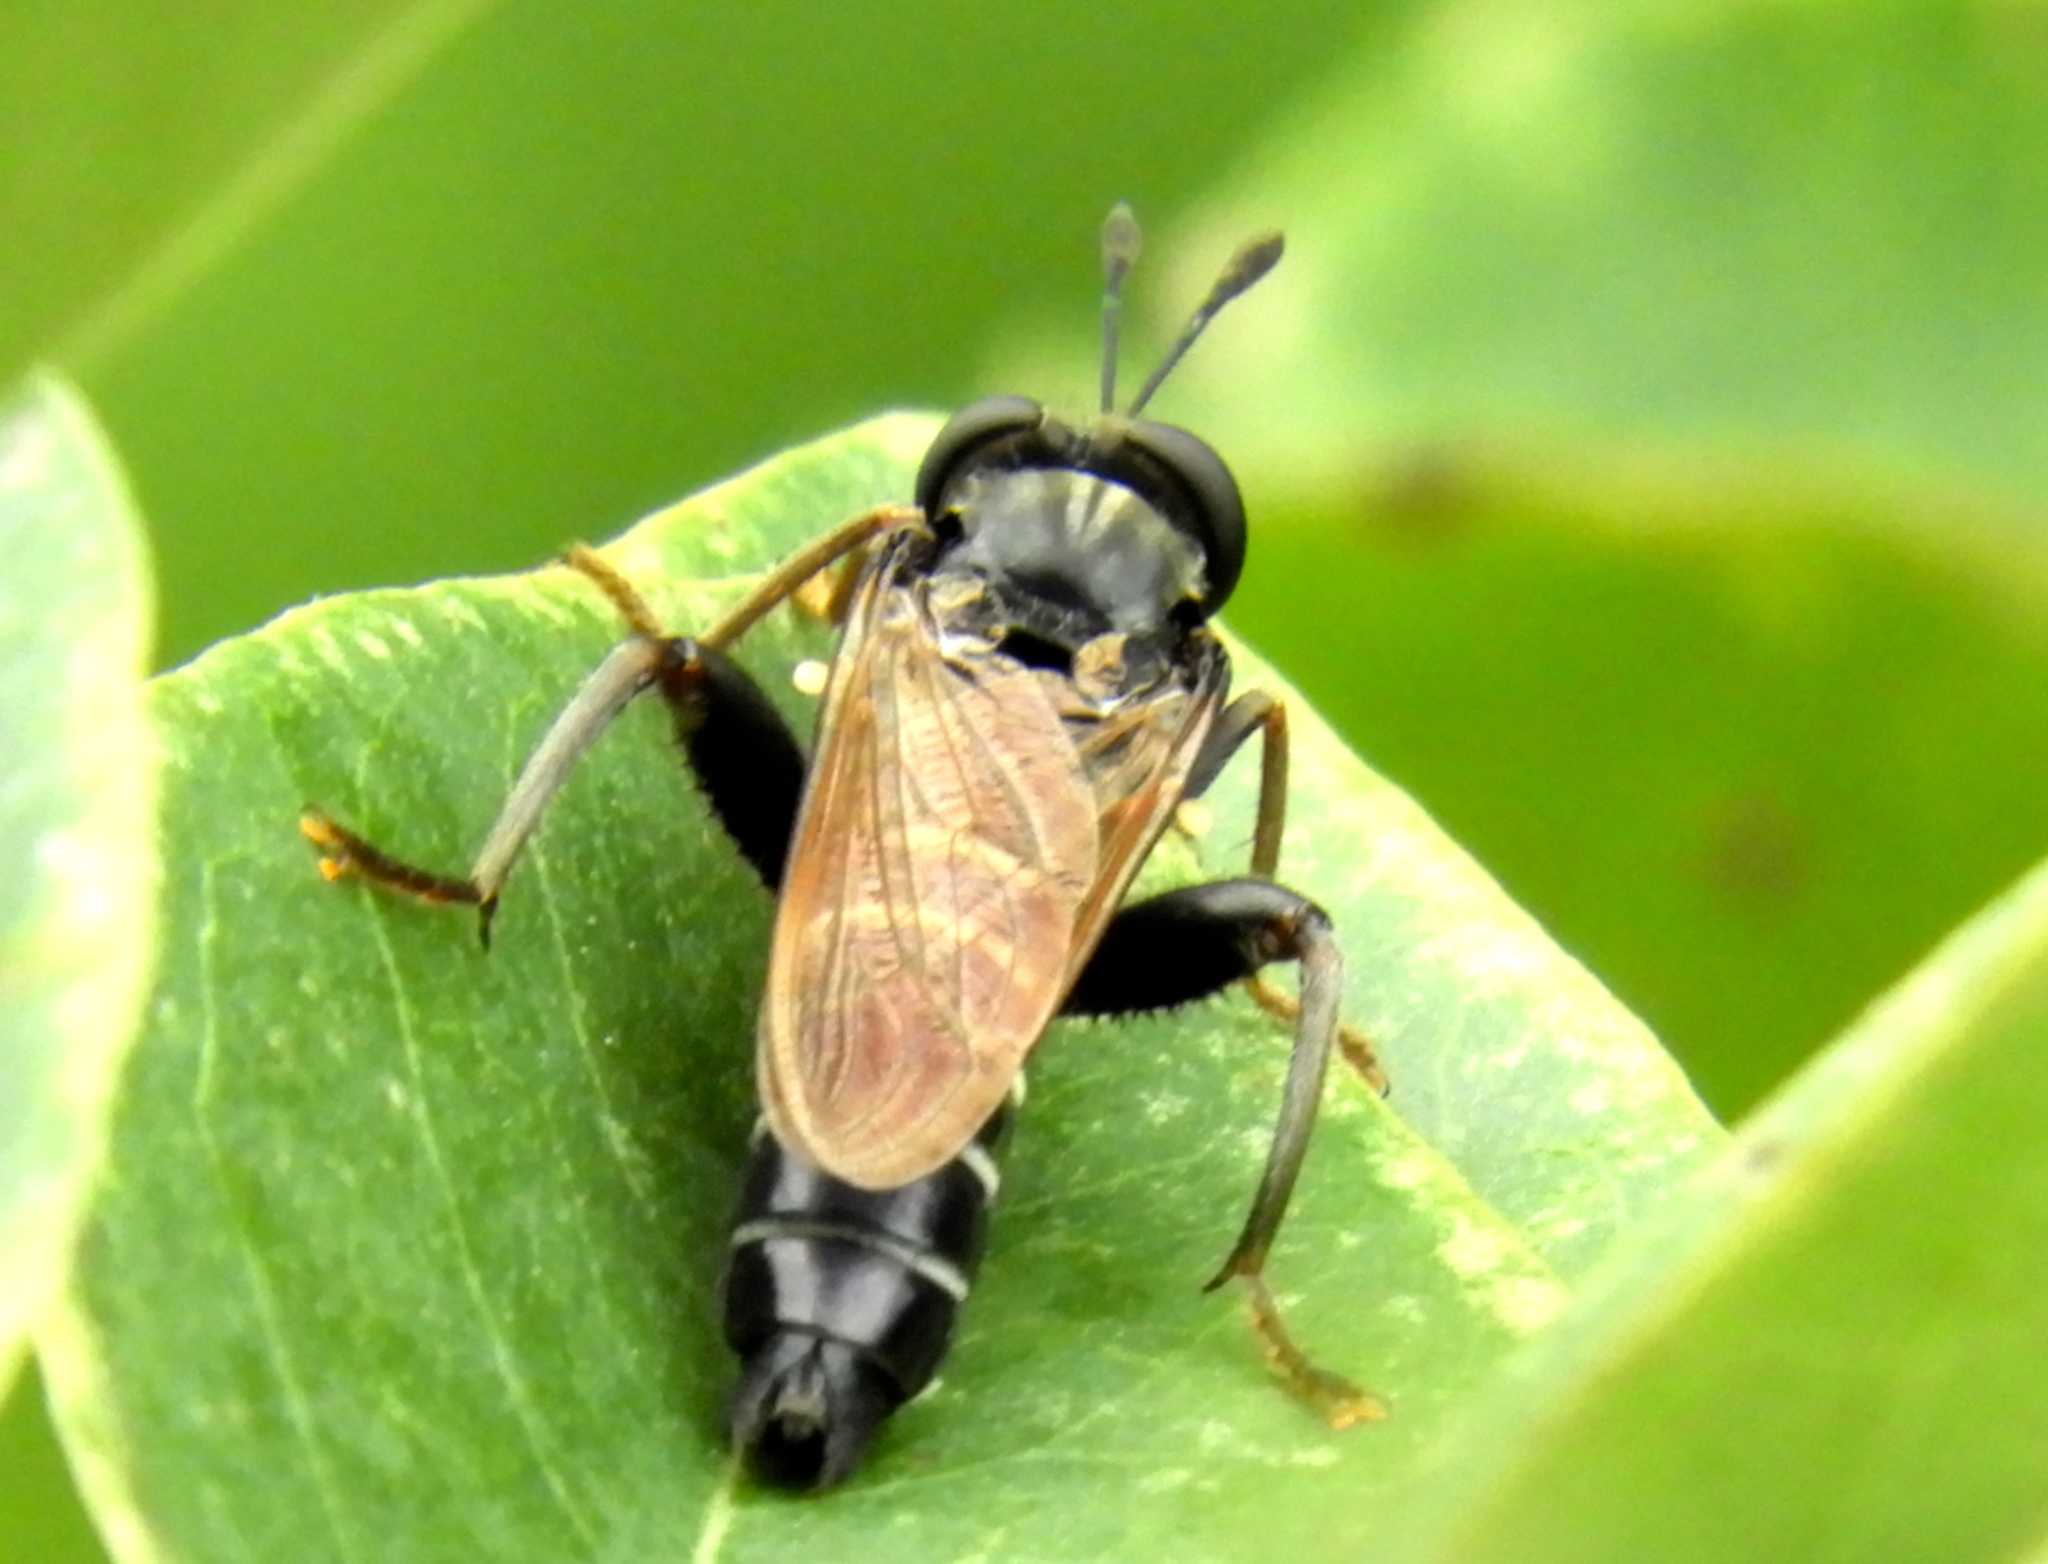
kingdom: Animalia
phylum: Arthropoda
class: Insecta
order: Diptera
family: Mydidae
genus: Mydas
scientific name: Mydas
